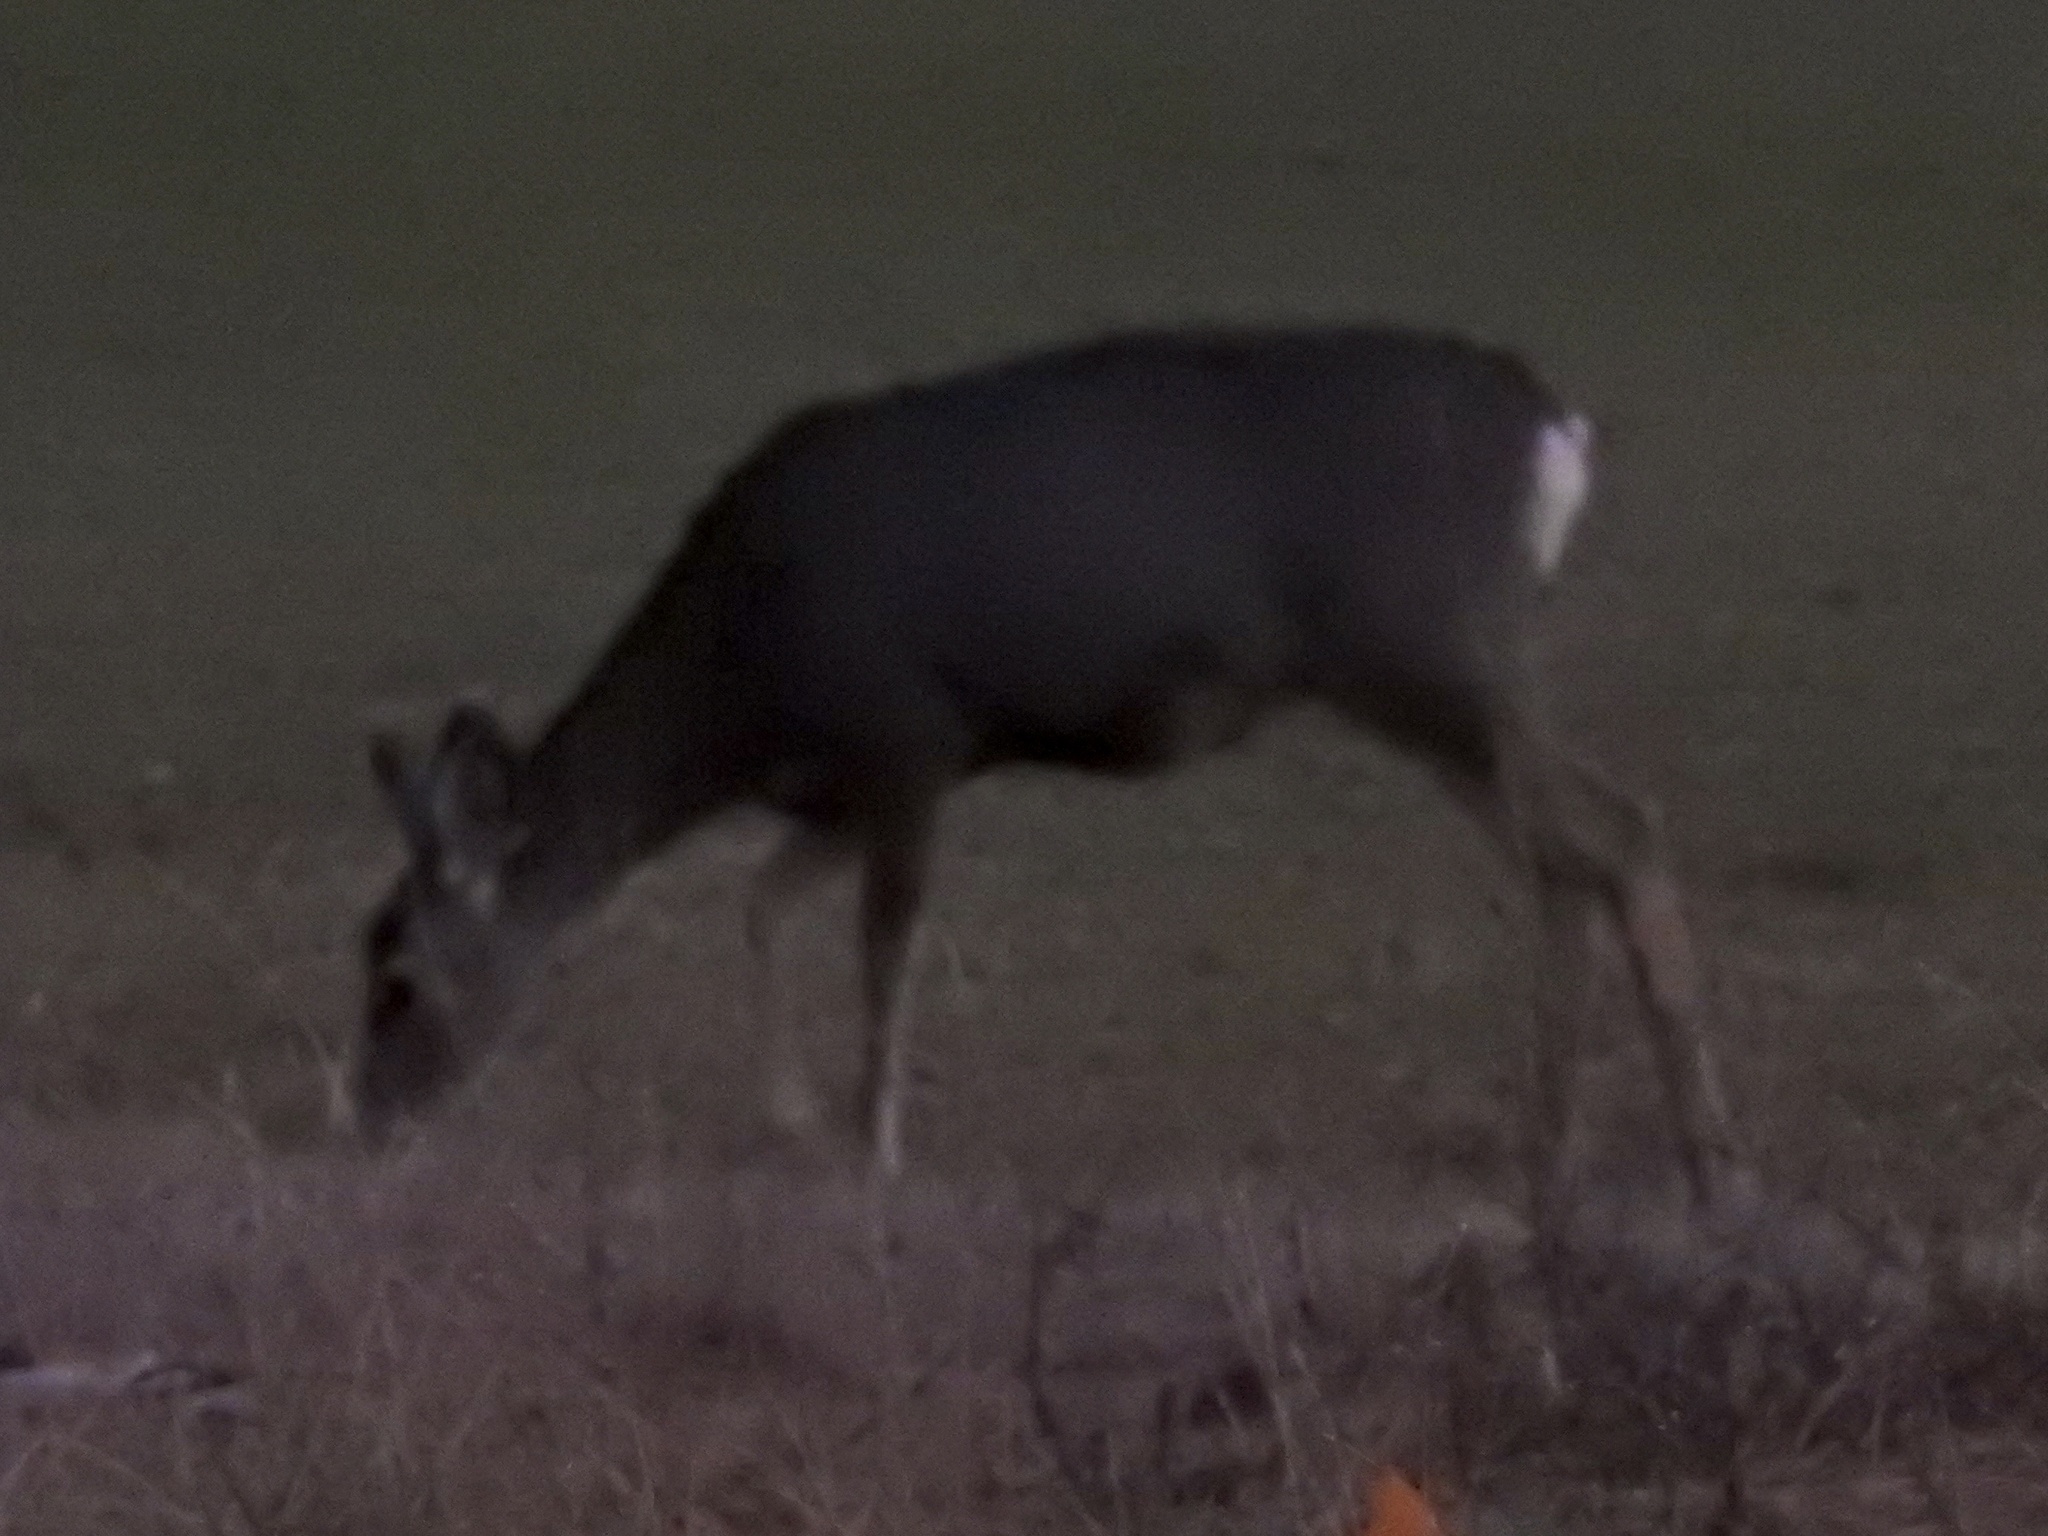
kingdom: Animalia
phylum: Chordata
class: Mammalia
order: Artiodactyla
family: Cervidae
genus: Odocoileus
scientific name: Odocoileus hemionus
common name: Mule deer
